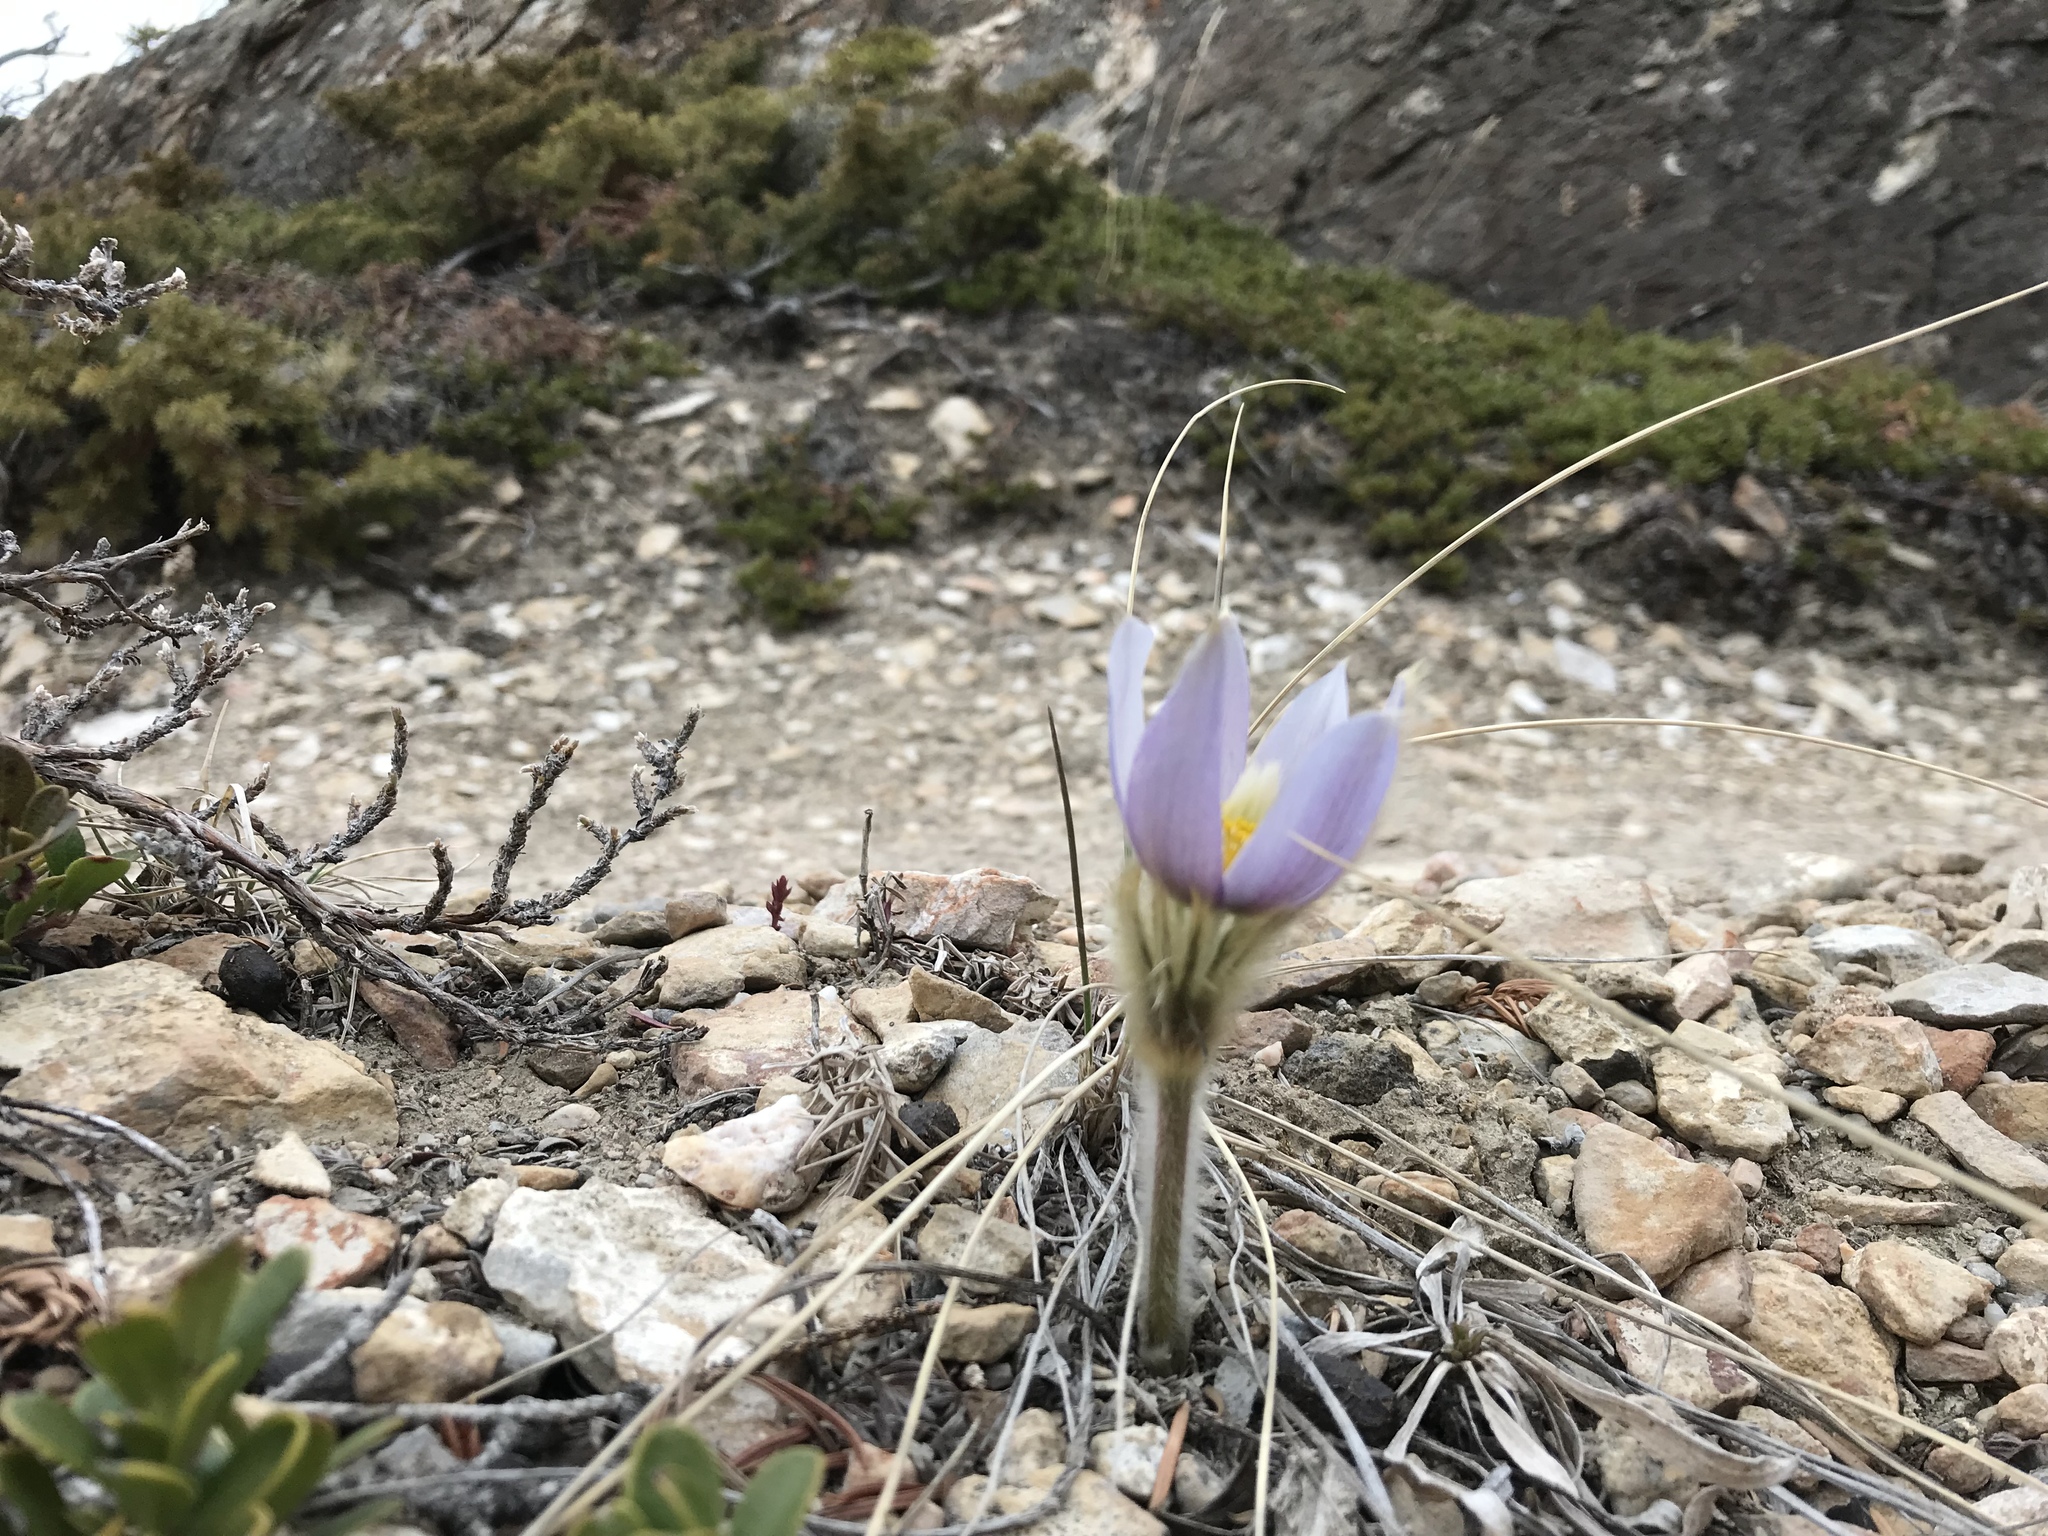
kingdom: Plantae
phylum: Tracheophyta
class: Magnoliopsida
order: Ranunculales
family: Ranunculaceae
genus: Pulsatilla
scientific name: Pulsatilla nuttalliana
